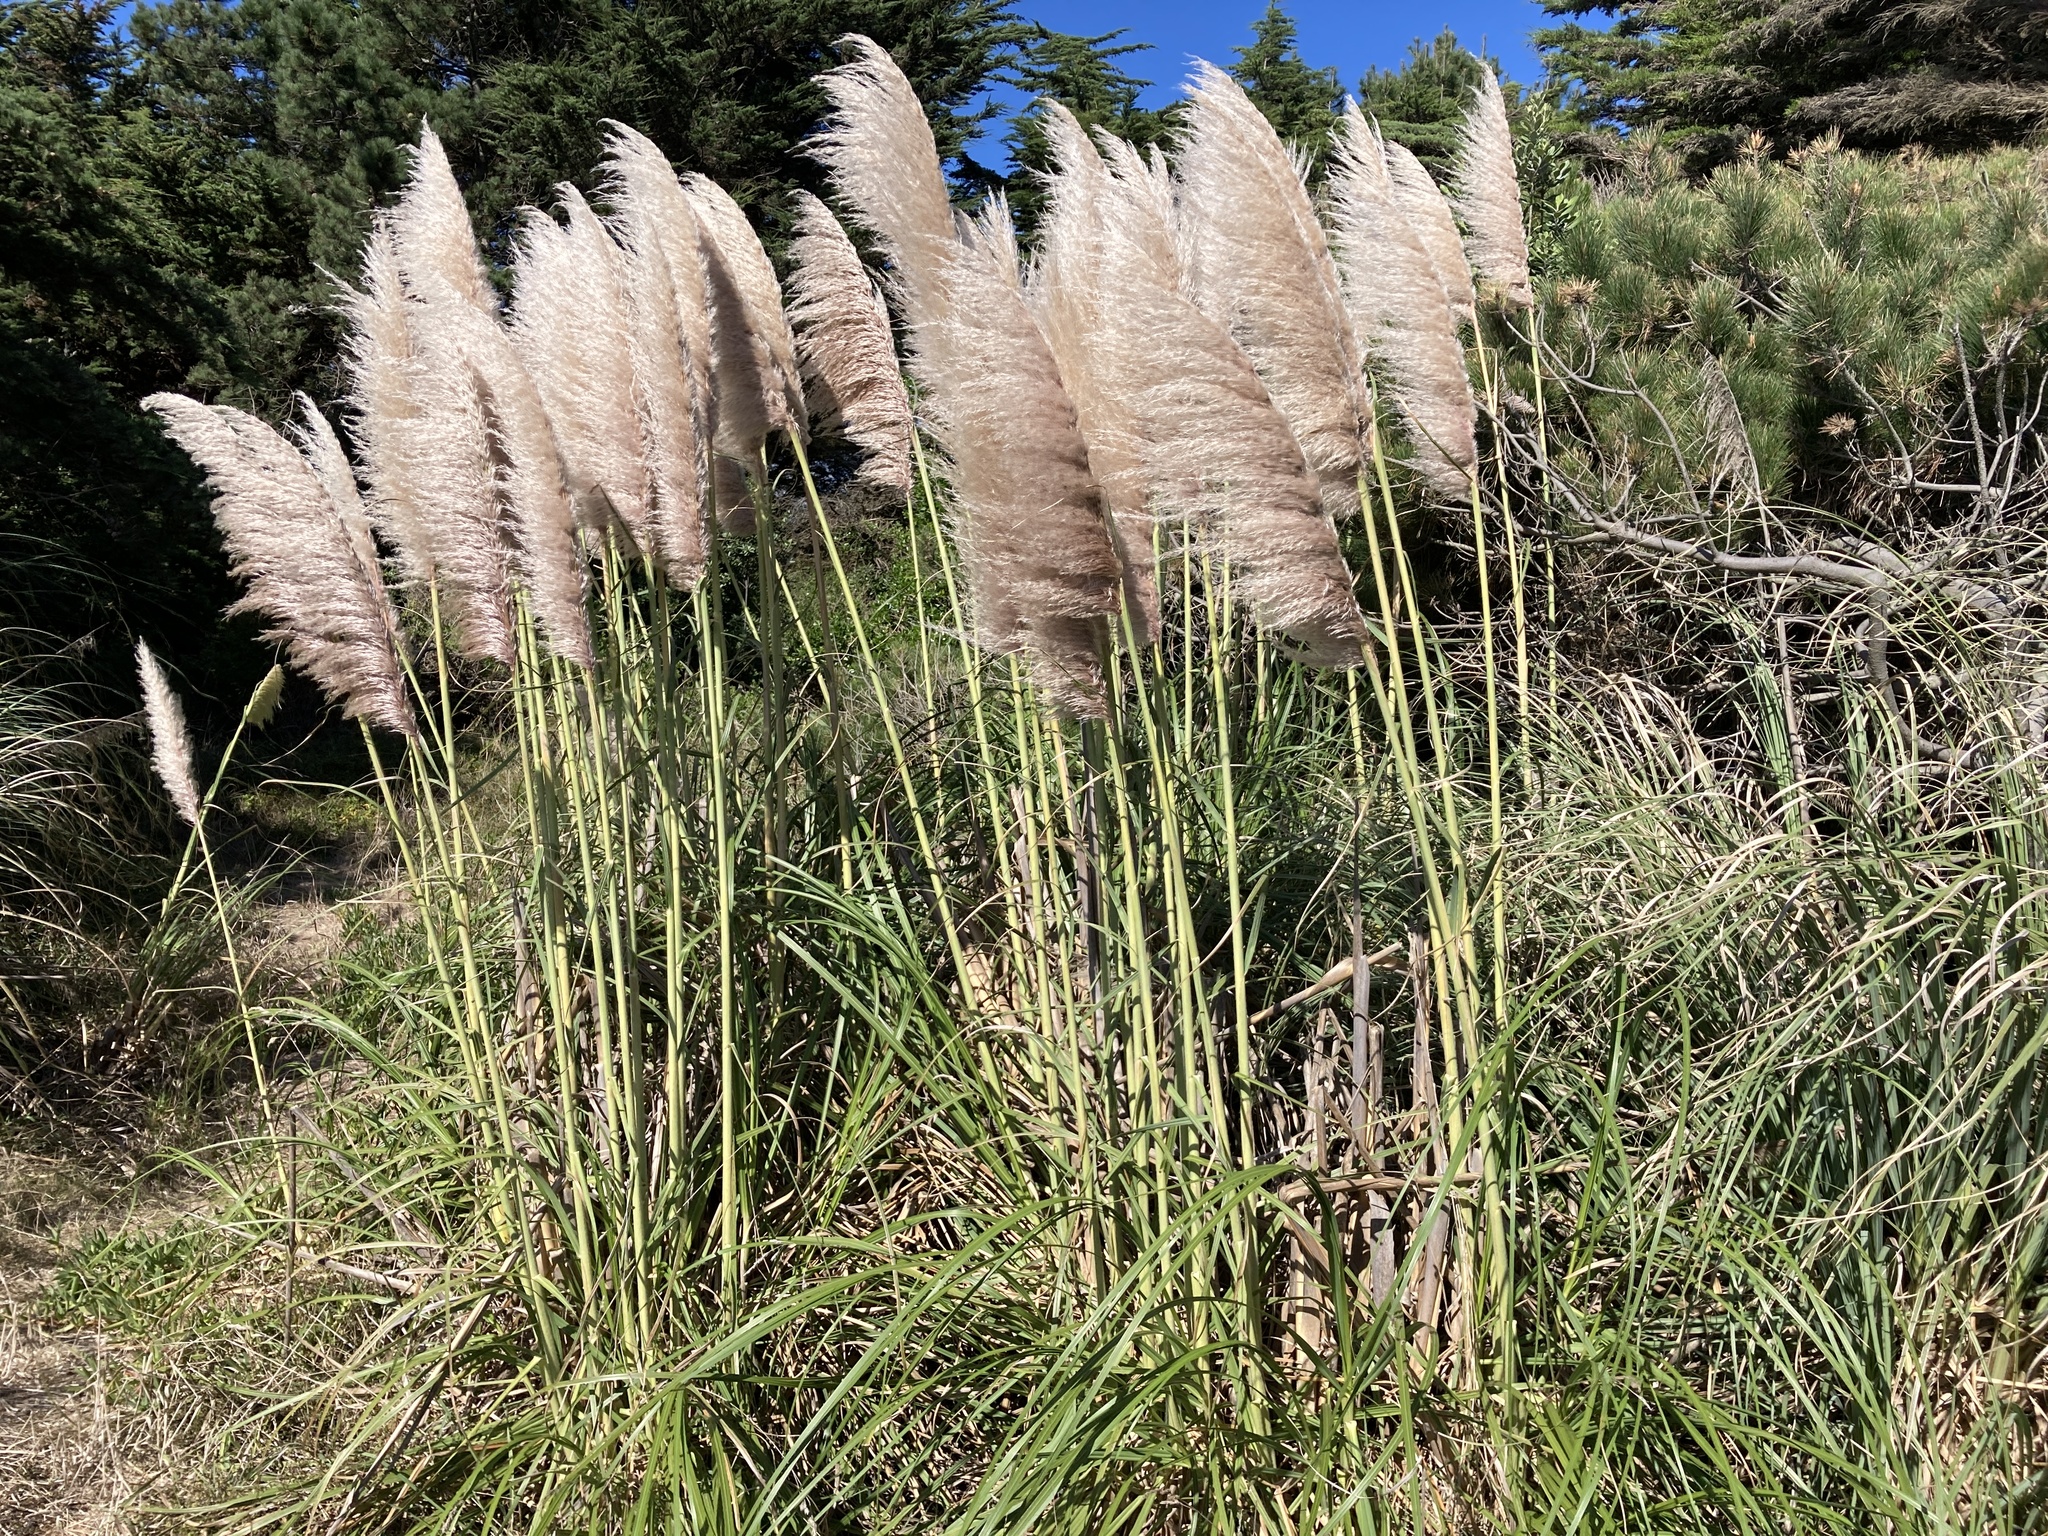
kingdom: Plantae
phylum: Tracheophyta
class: Liliopsida
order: Poales
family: Poaceae
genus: Cortaderia
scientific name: Cortaderia jubata
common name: Purple pampas grass
